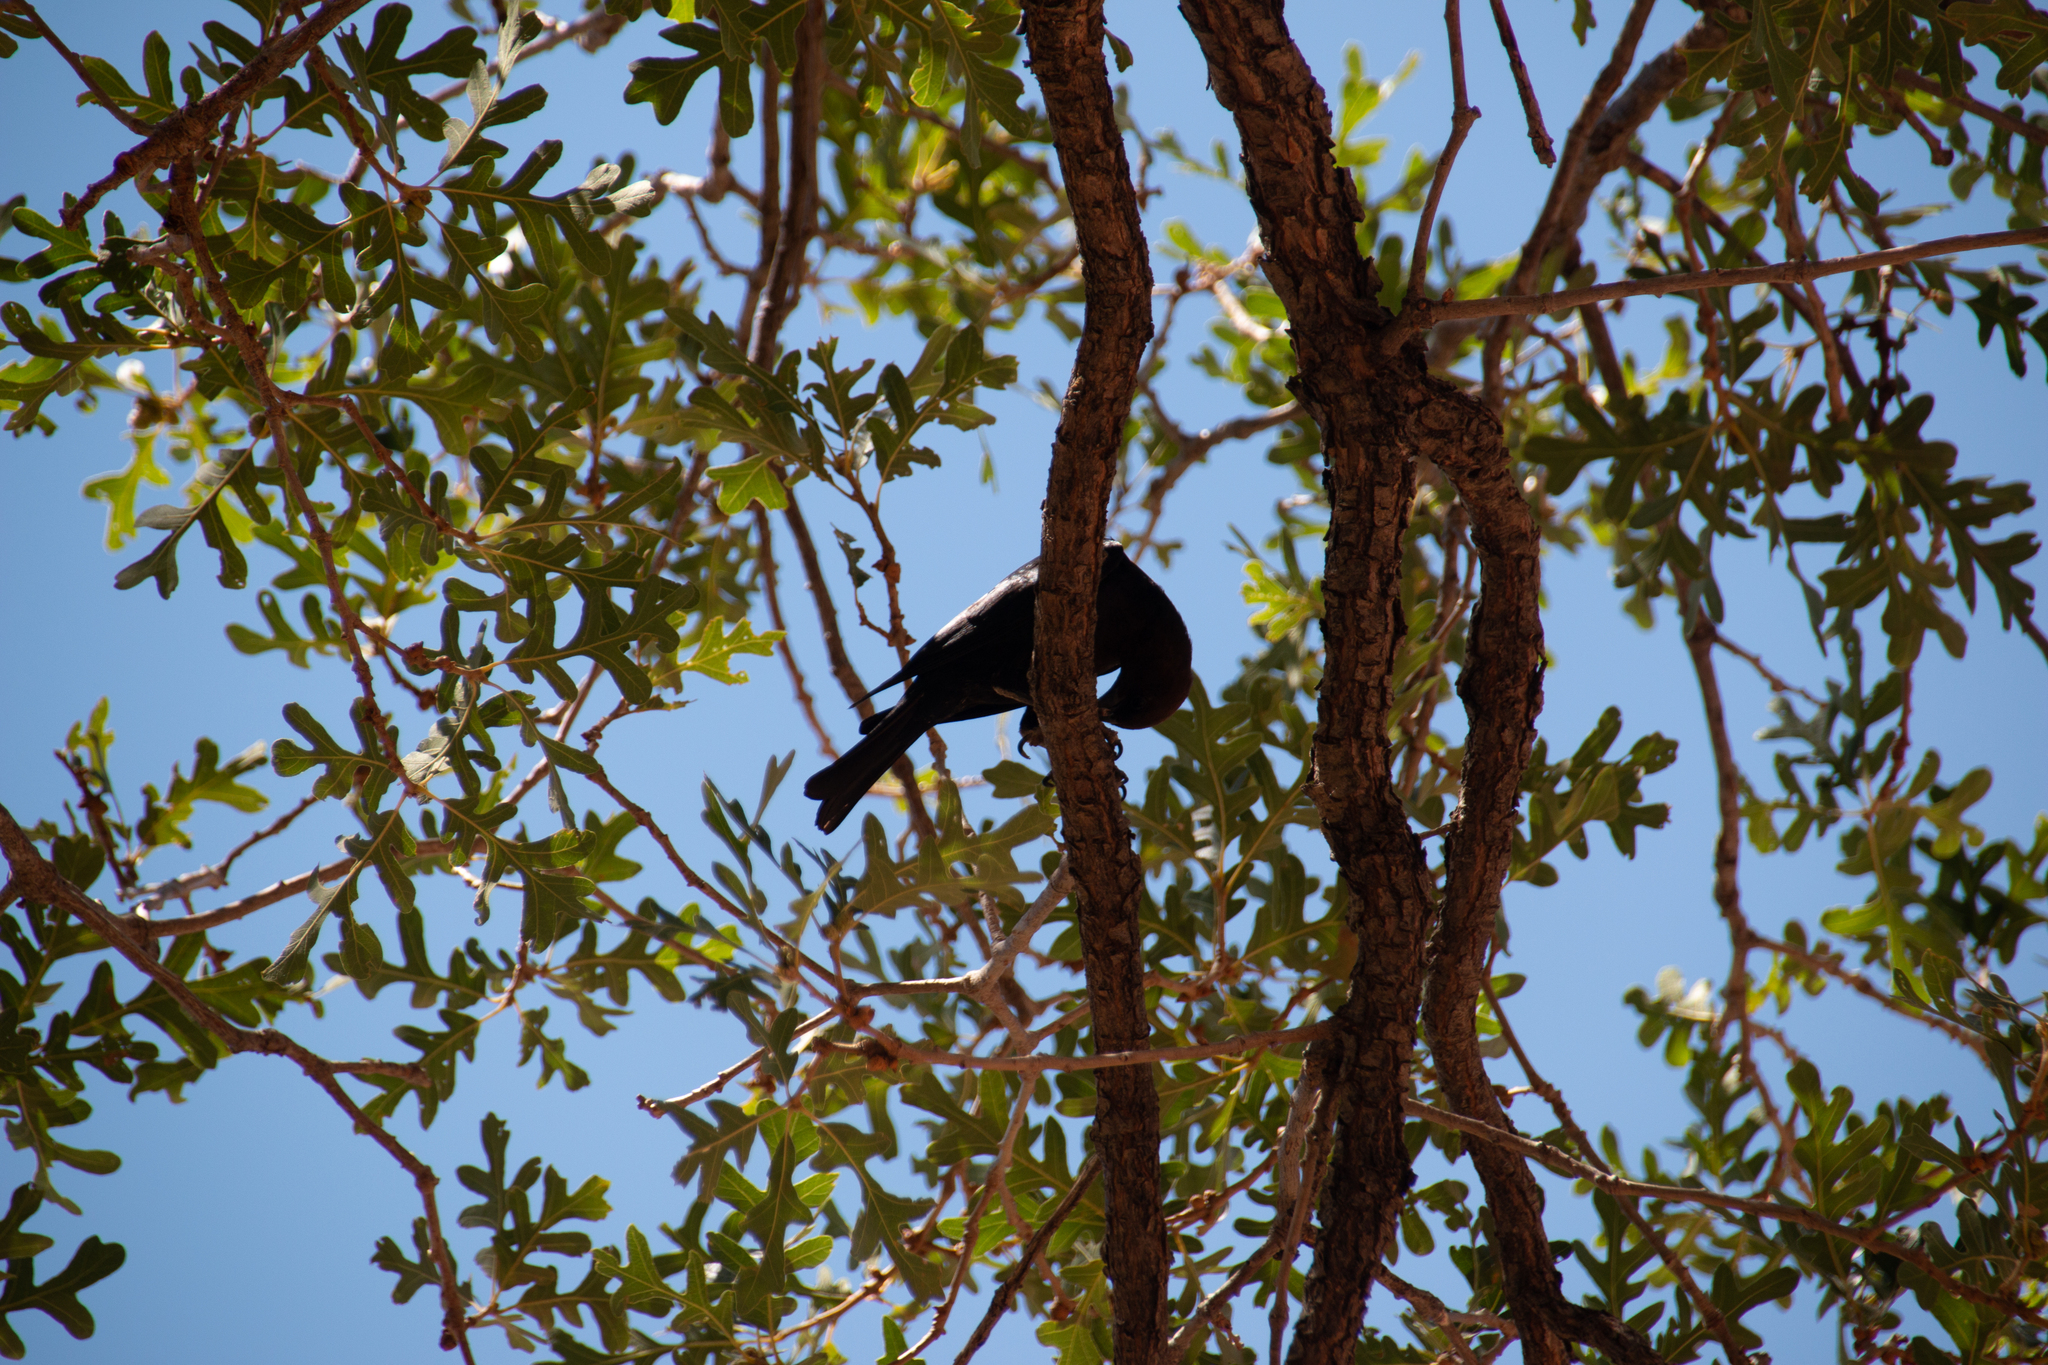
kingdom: Animalia
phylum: Chordata
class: Aves
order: Passeriformes
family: Icteridae
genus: Molothrus
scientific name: Molothrus ater
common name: Brown-headed cowbird
